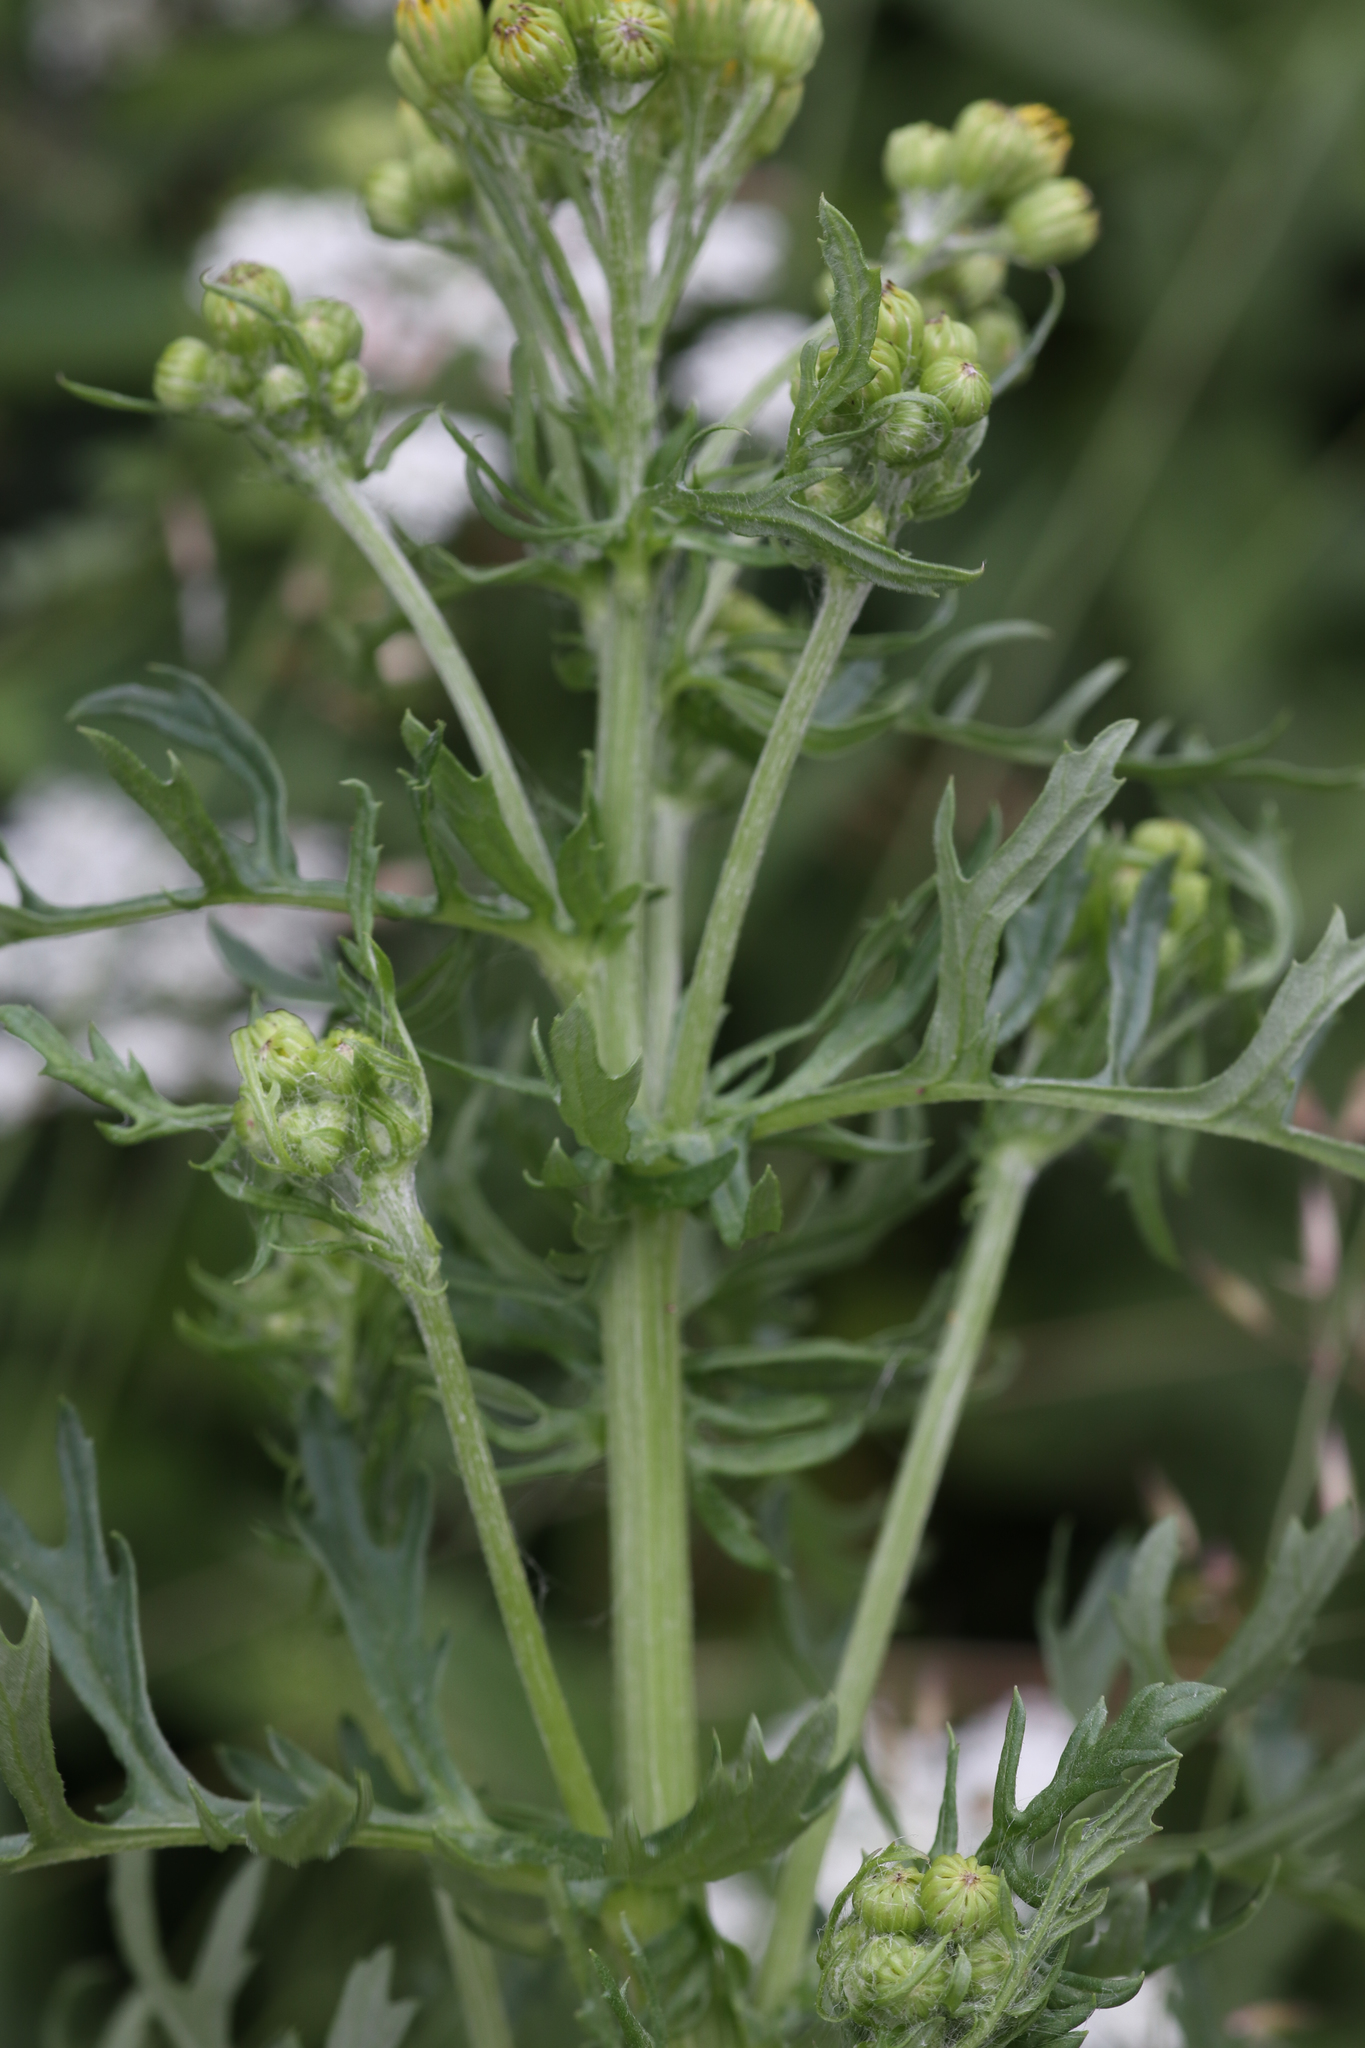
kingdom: Plantae
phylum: Tracheophyta
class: Magnoliopsida
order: Asterales
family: Asteraceae
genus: Jacobaea
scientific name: Jacobaea vulgaris
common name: Stinking willie
